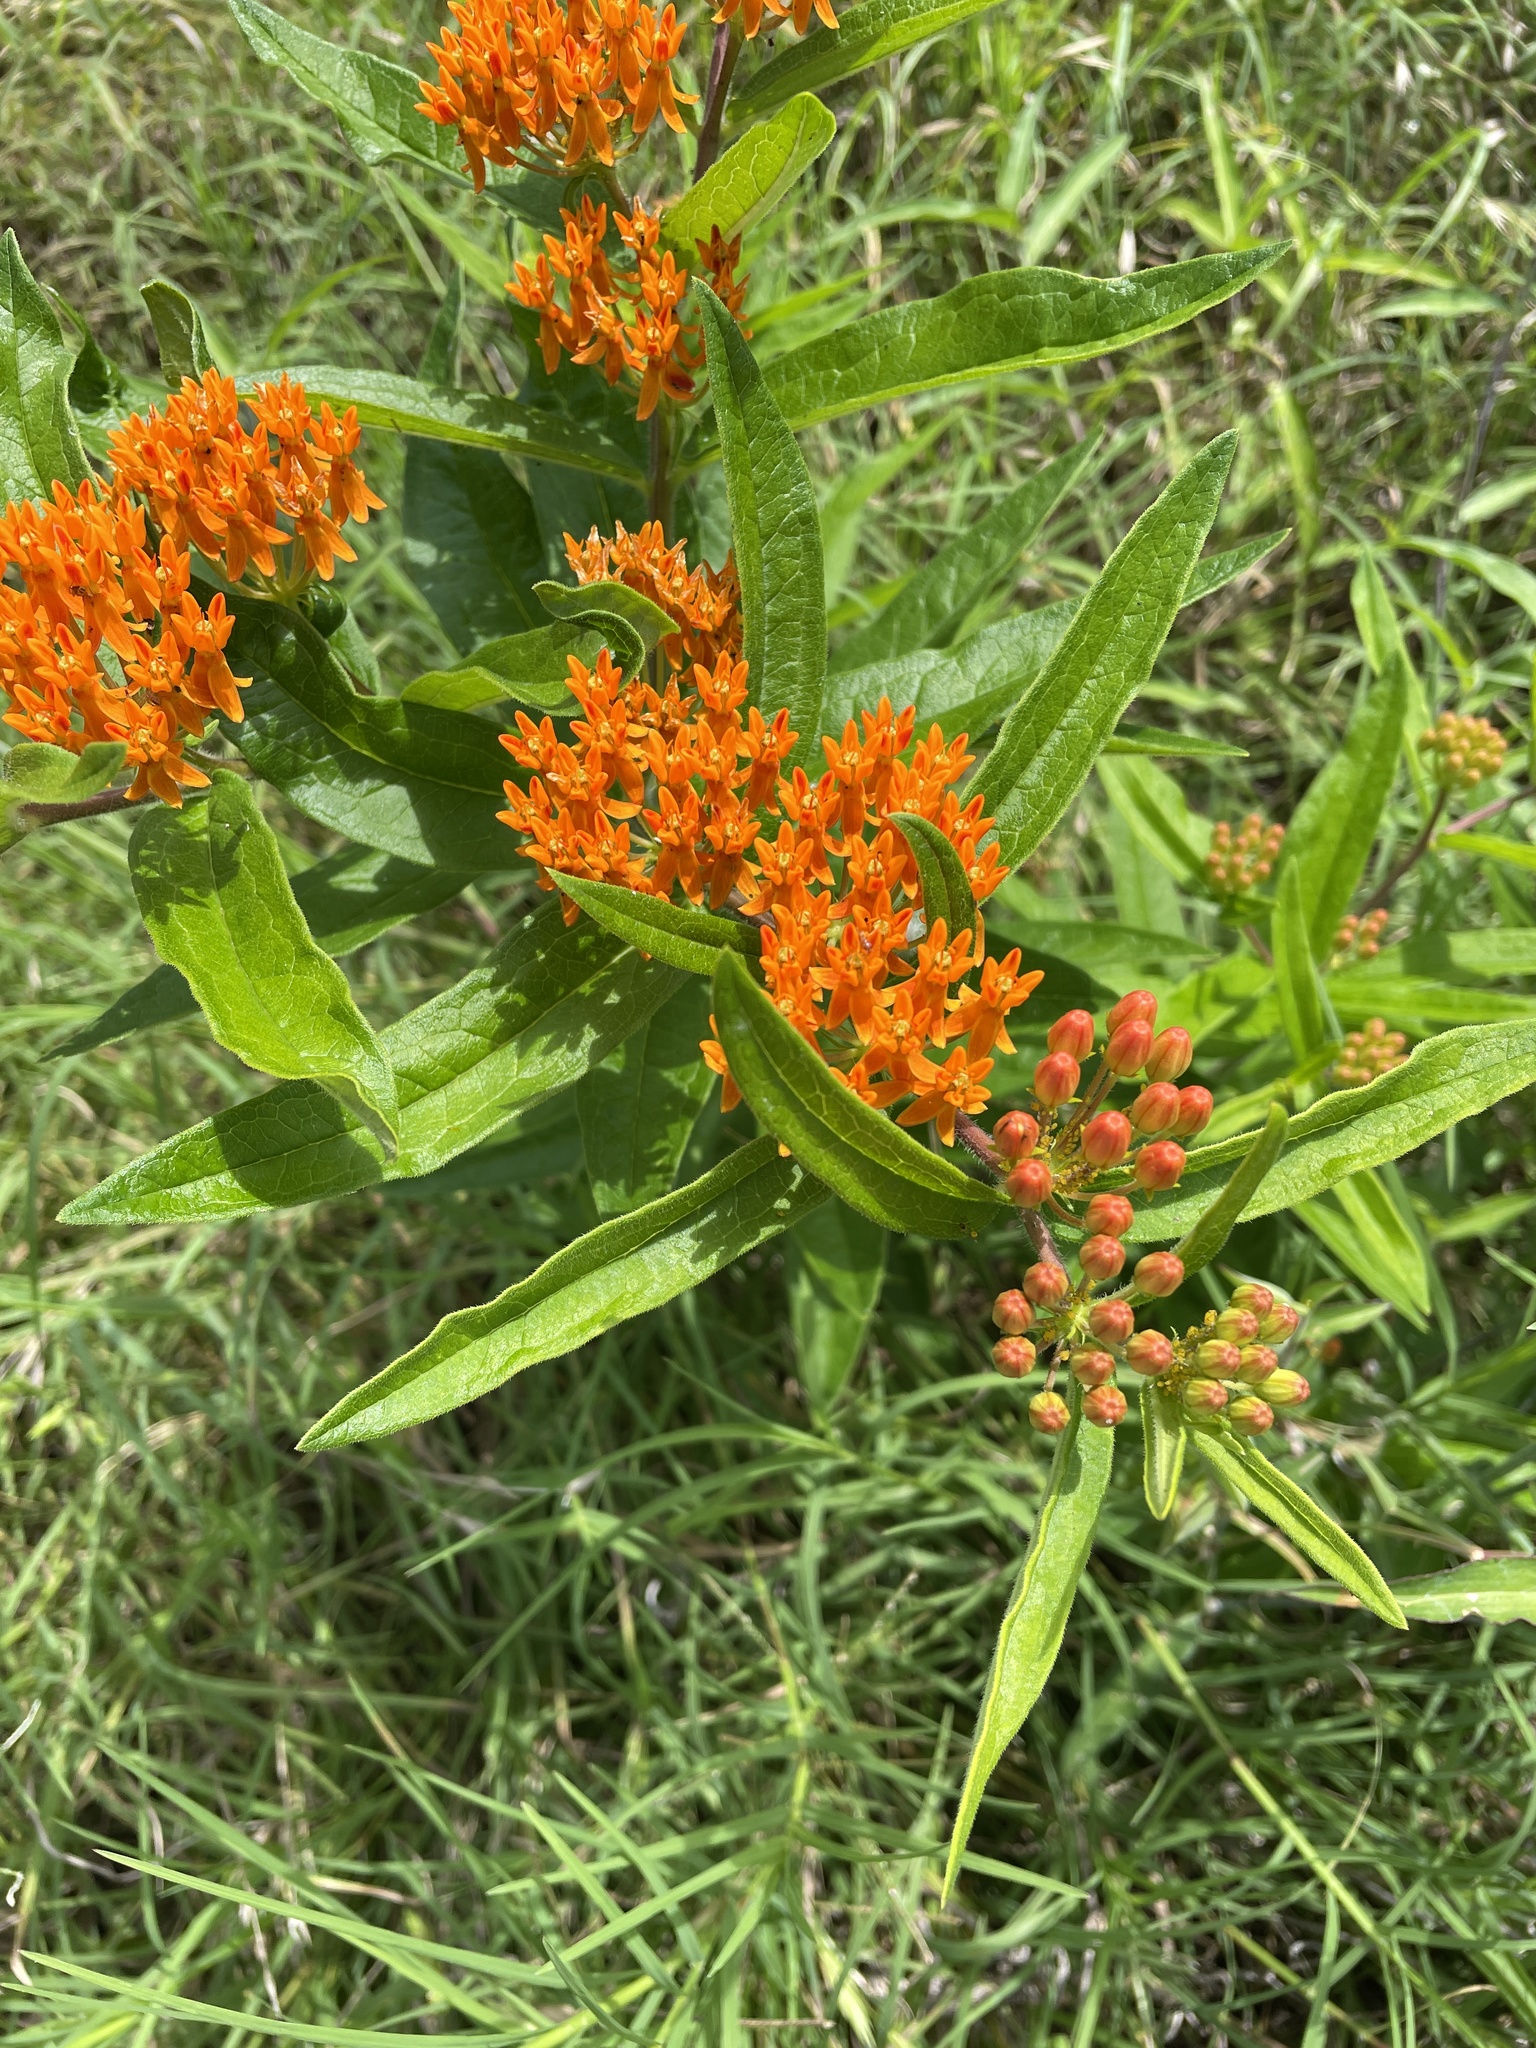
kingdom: Plantae
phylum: Tracheophyta
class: Magnoliopsida
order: Gentianales
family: Apocynaceae
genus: Asclepias
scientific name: Asclepias tuberosa
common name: Butterfly milkweed
